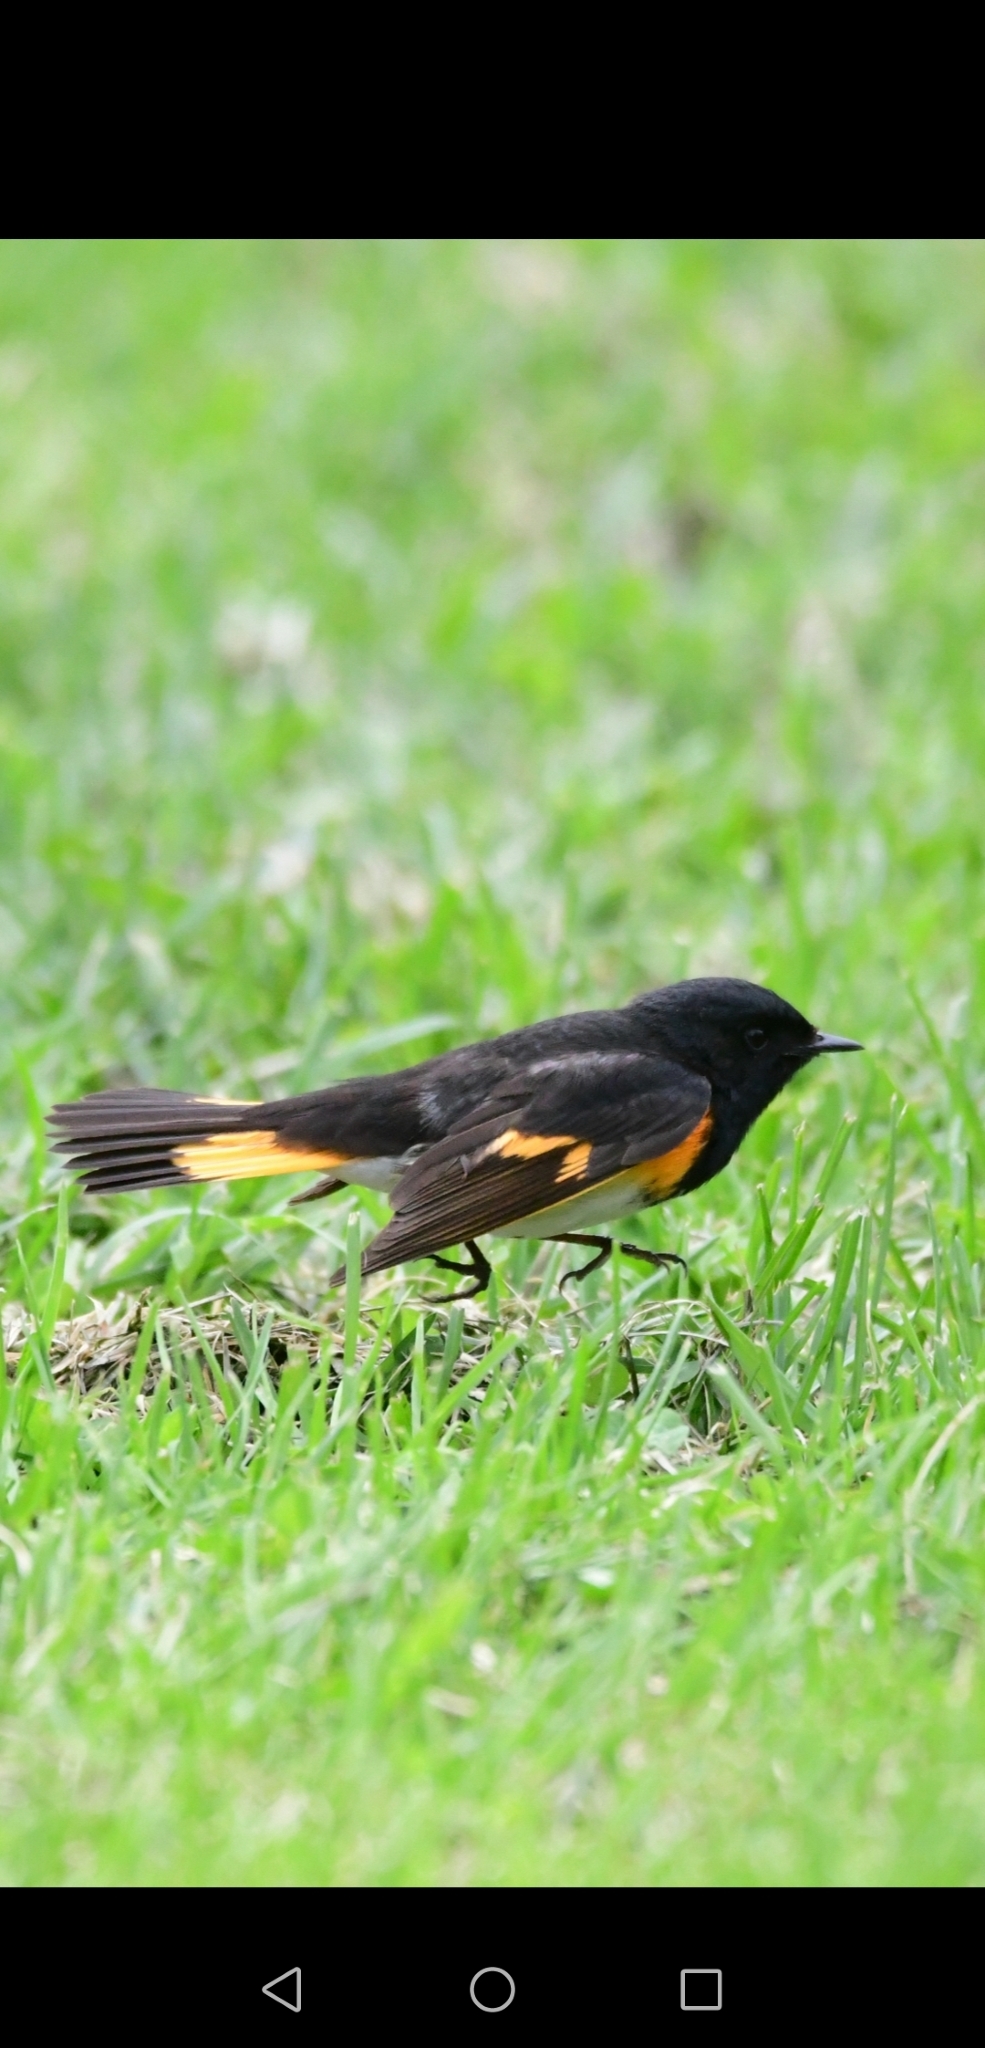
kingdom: Animalia
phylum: Chordata
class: Aves
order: Passeriformes
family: Parulidae
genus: Setophaga
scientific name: Setophaga ruticilla
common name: American redstart
